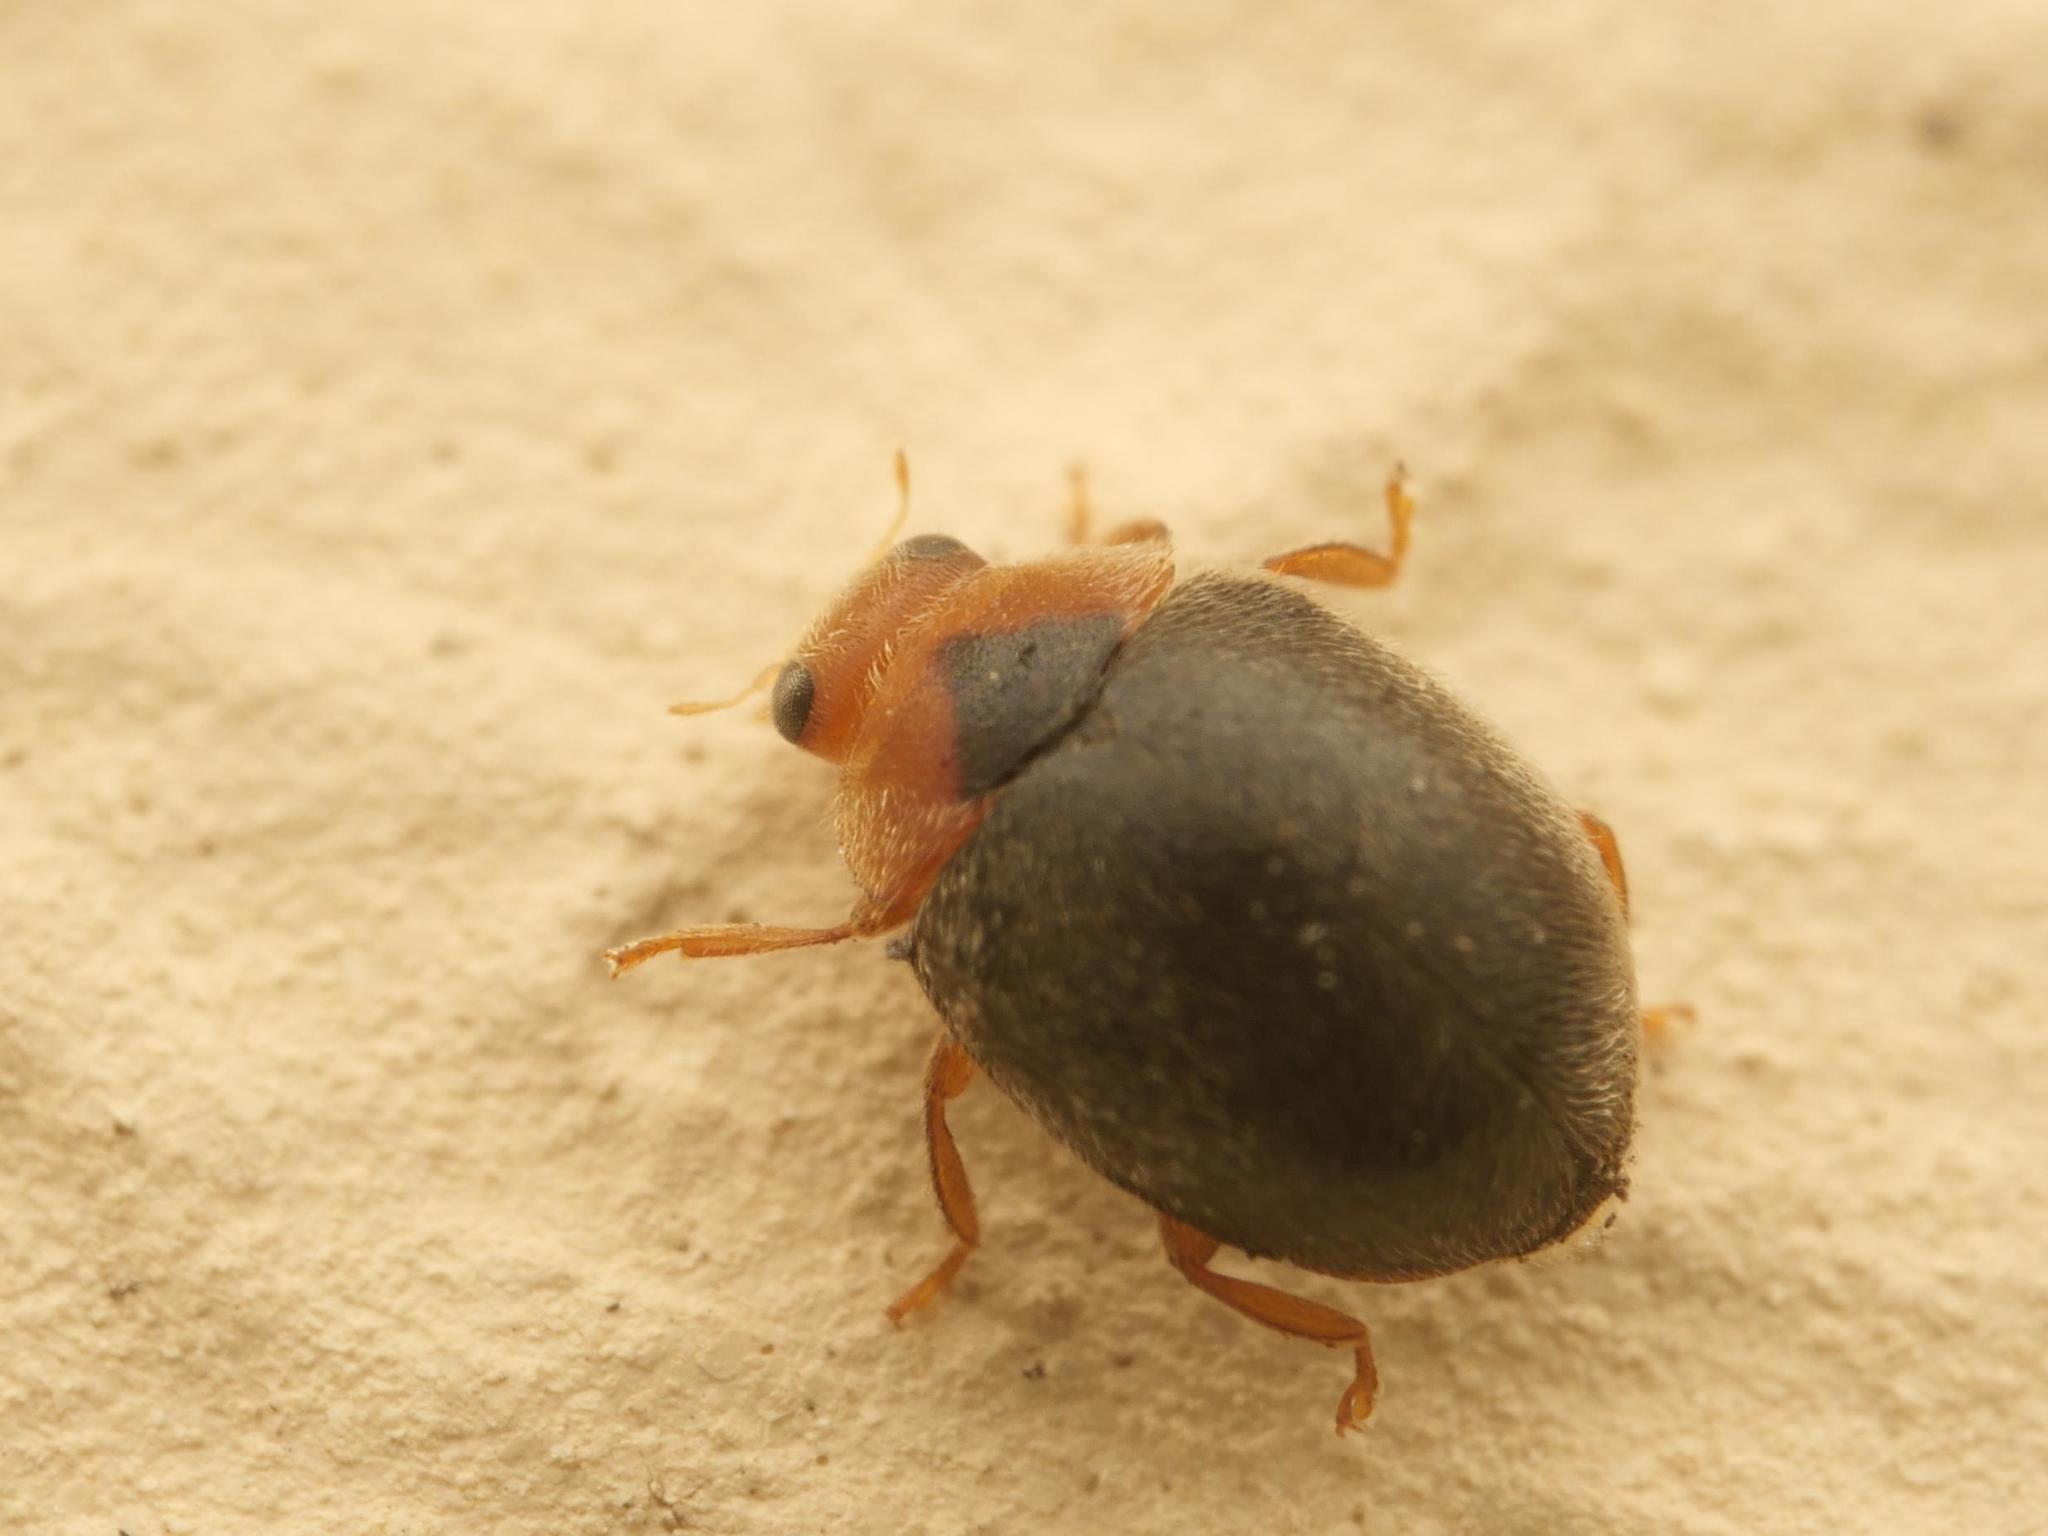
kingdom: Animalia
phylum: Arthropoda
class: Insecta
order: Coleoptera
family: Coccinellidae
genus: Scymnus
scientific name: Scymnus rubromaculatus
